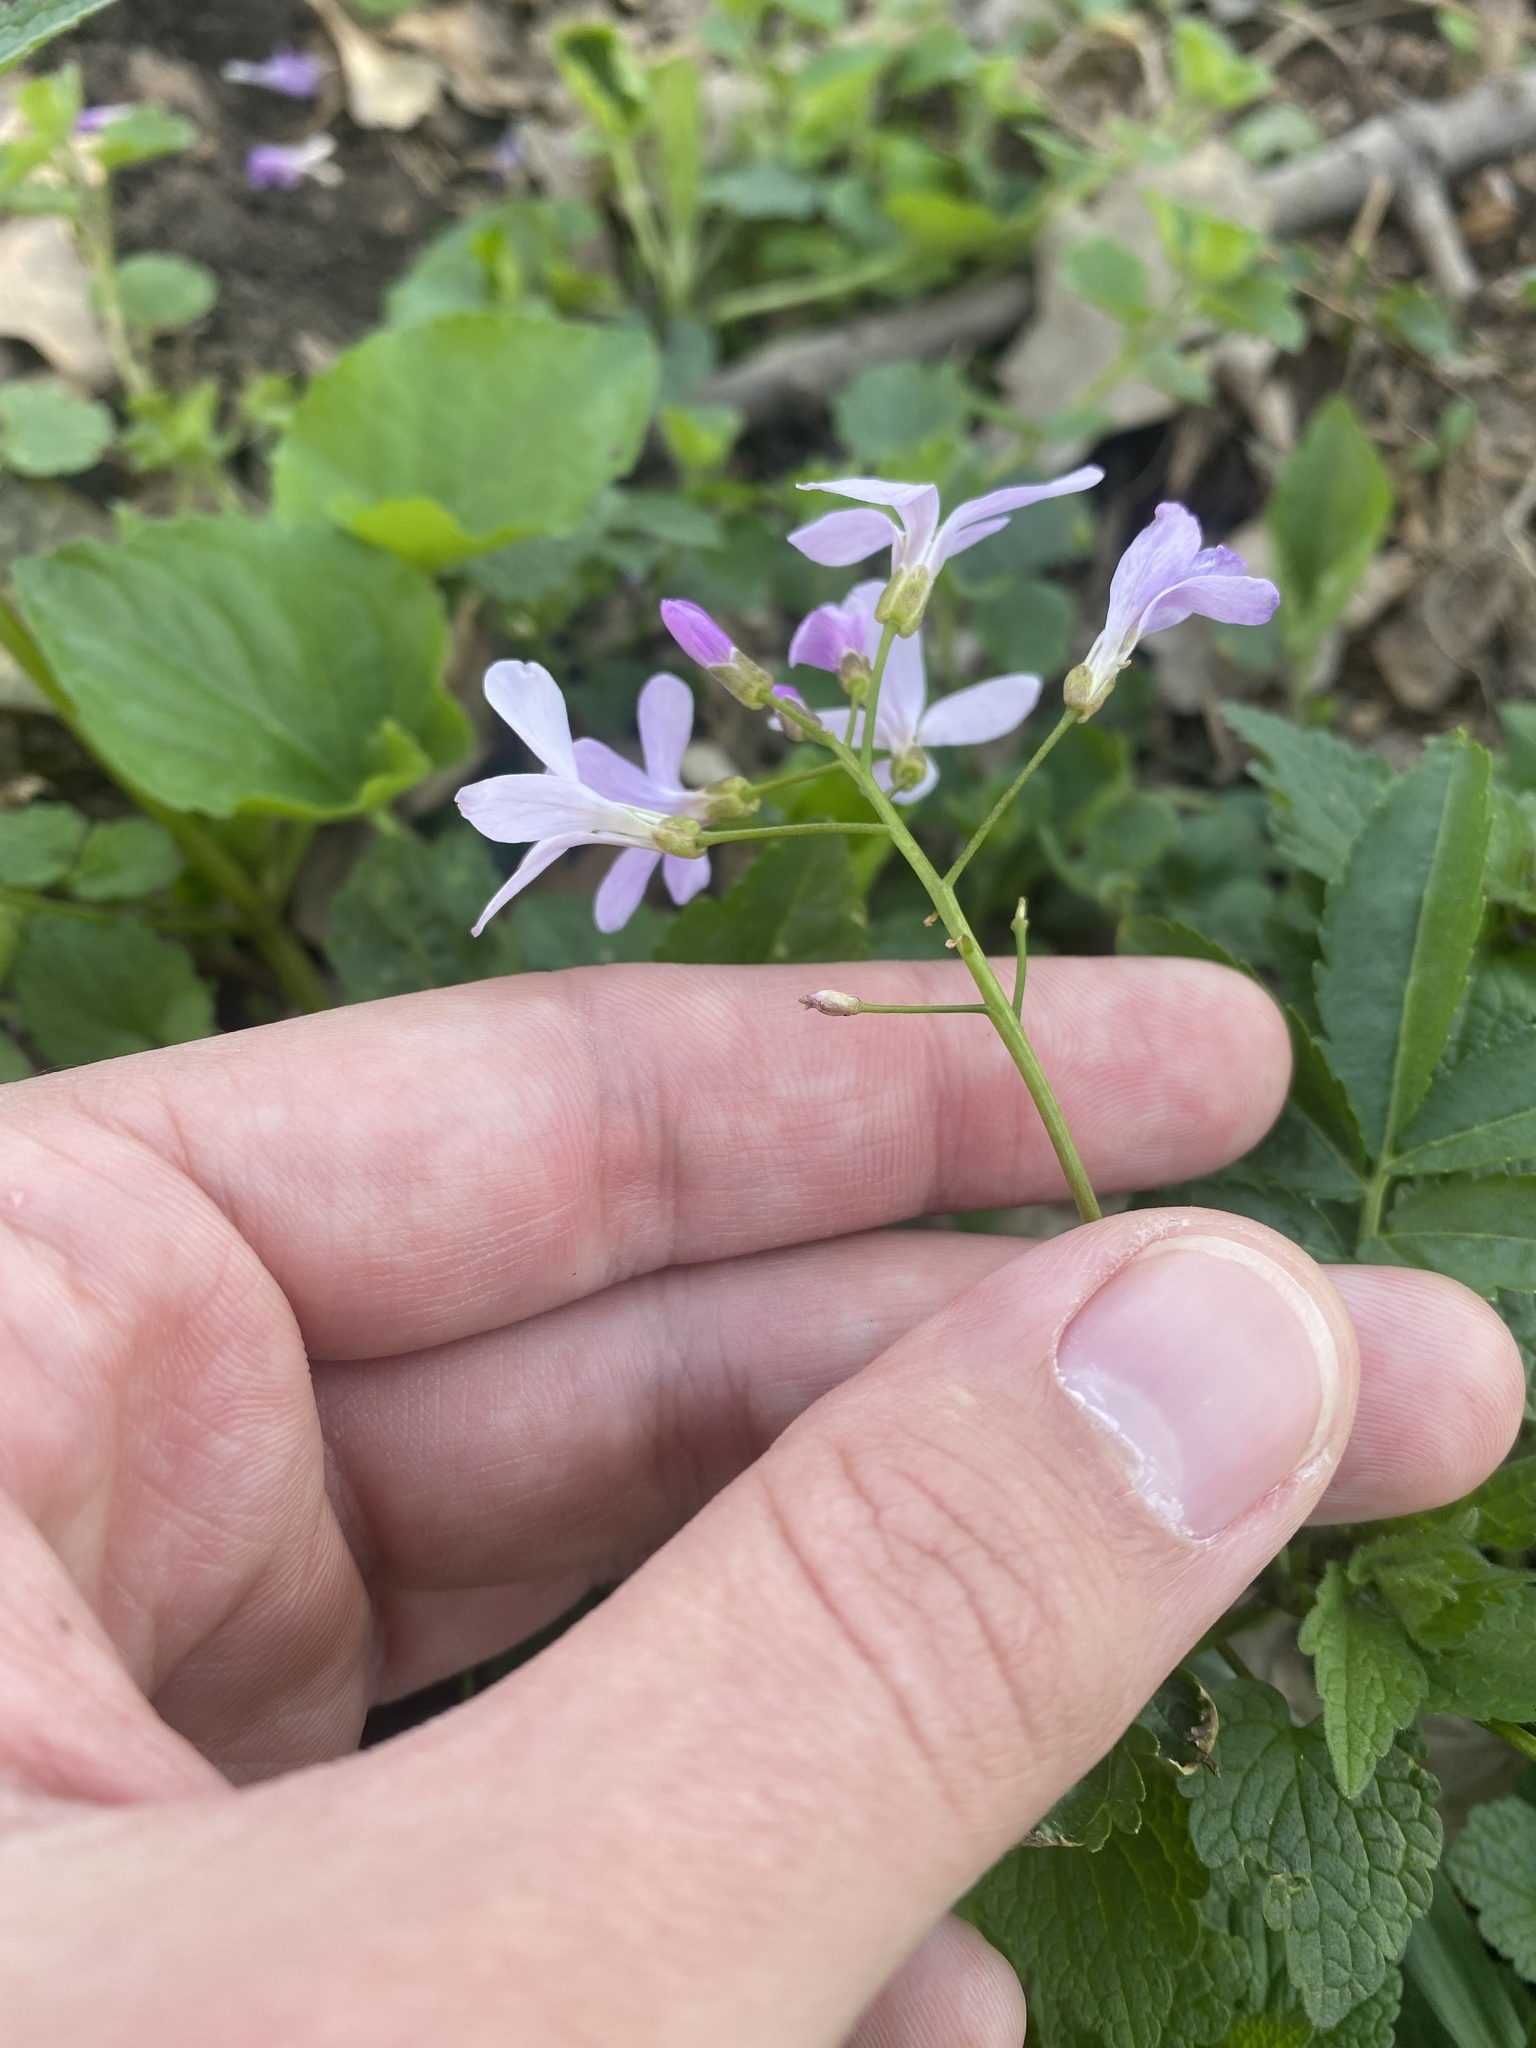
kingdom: Plantae
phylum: Tracheophyta
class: Magnoliopsida
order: Brassicales
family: Brassicaceae
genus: Cardamine
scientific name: Cardamine quinquefolia
